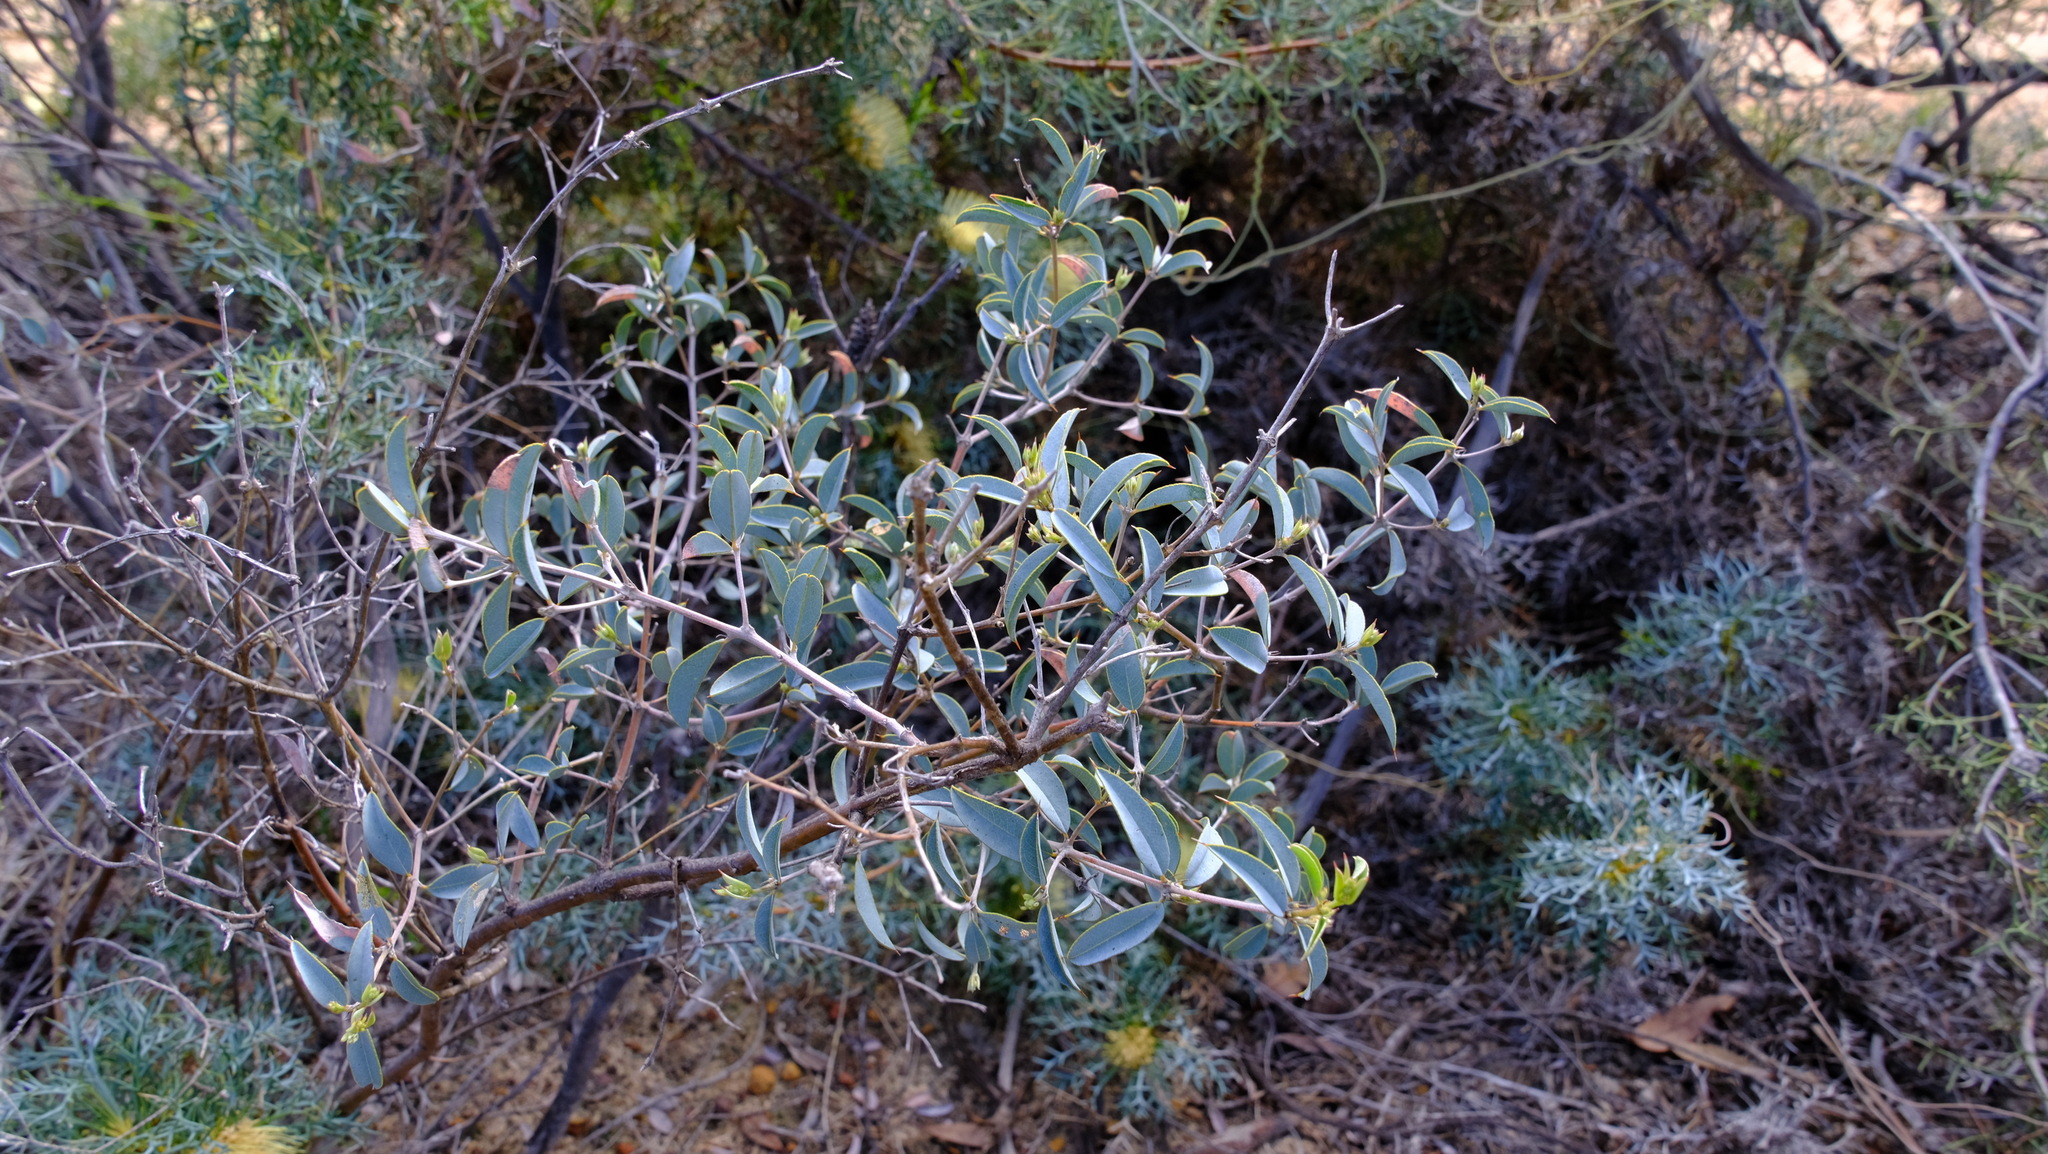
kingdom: Plantae
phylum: Tracheophyta
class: Magnoliopsida
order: Fabales
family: Fabaceae
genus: Gastrolobium
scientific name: Gastrolobium oxylobioides
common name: Champion bay poison
